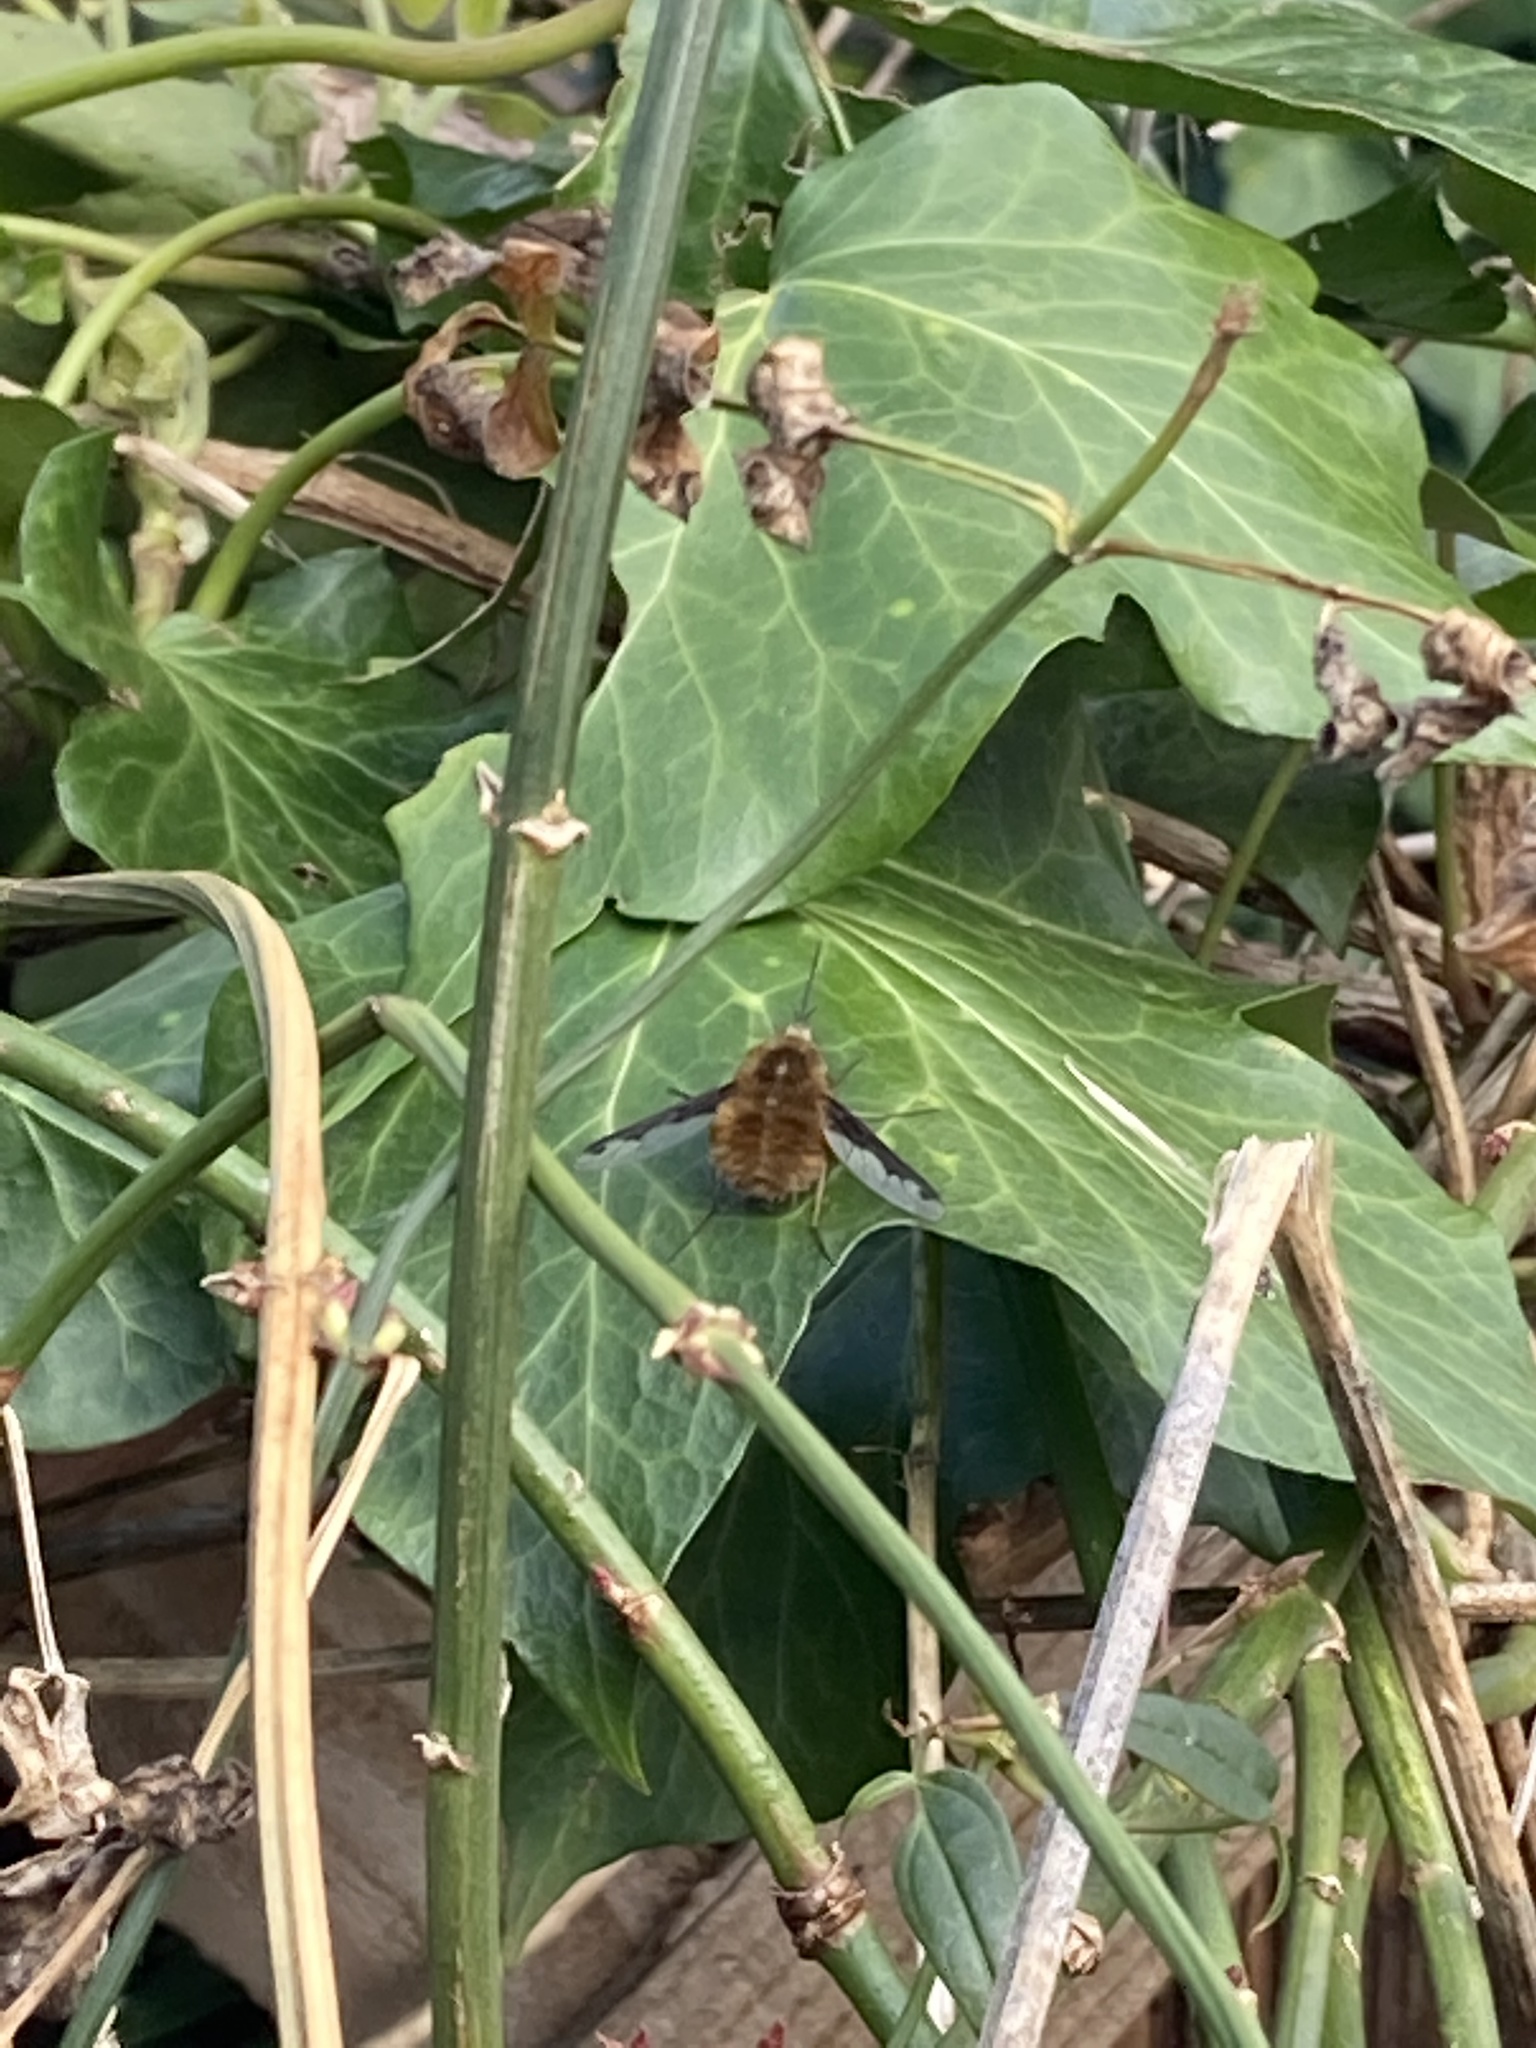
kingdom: Animalia
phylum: Arthropoda
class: Insecta
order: Diptera
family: Bombyliidae
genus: Bombylius
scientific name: Bombylius major
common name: Bee fly
